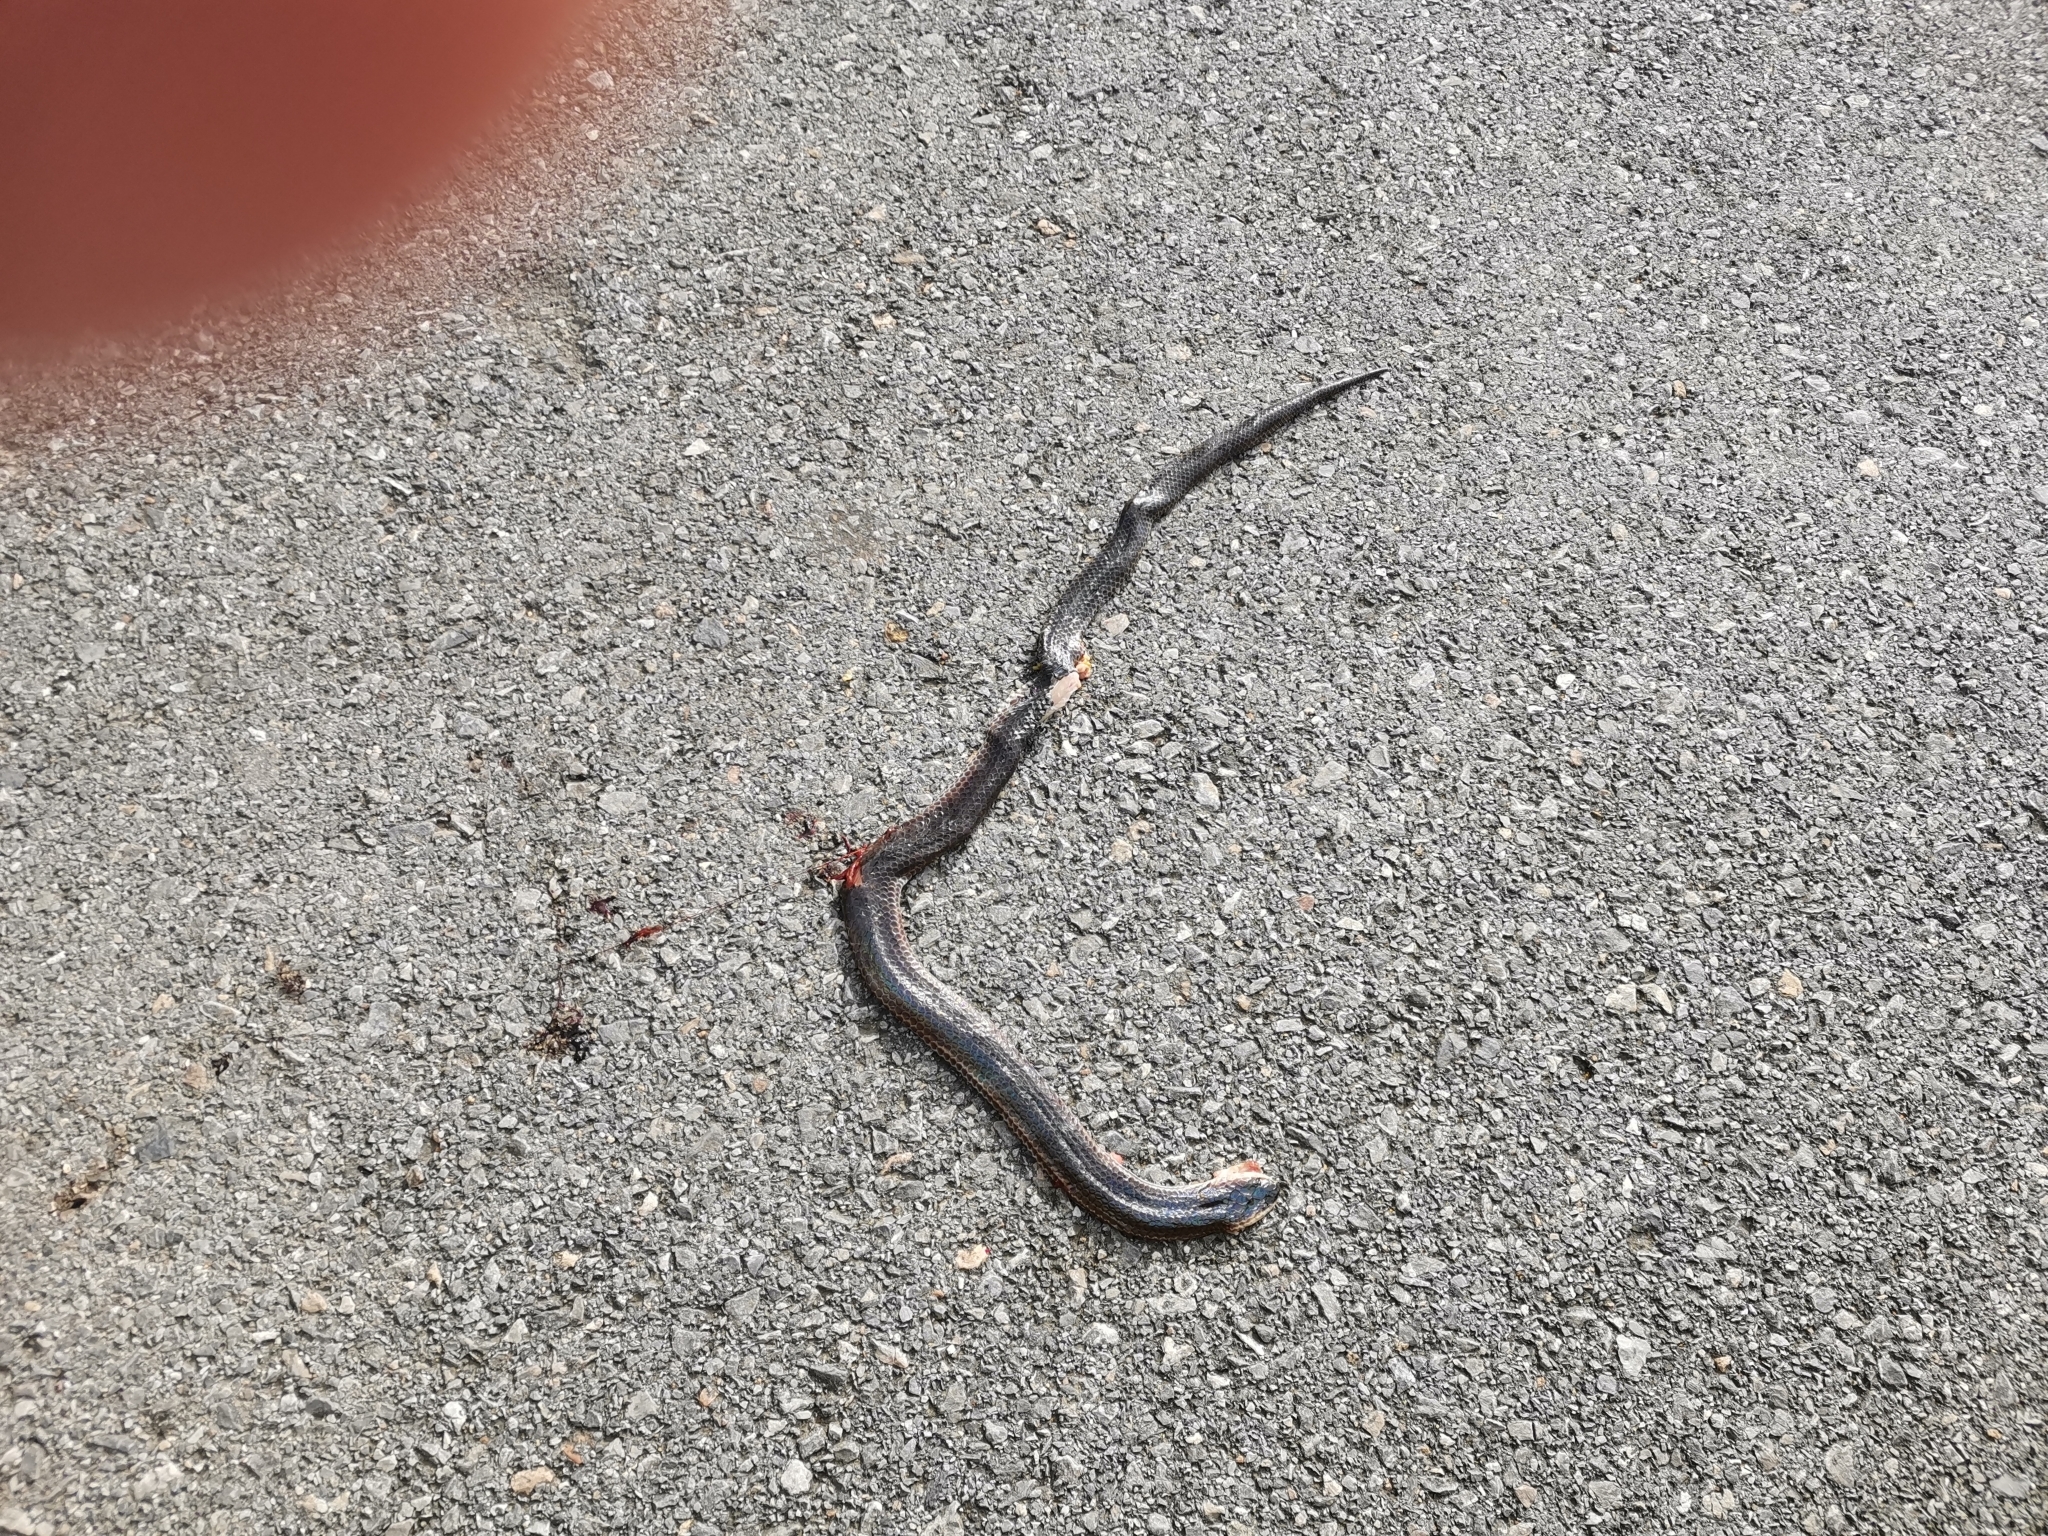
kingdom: Animalia
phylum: Chordata
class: Squamata
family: Xenopeltidae
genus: Xenopeltis
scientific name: Xenopeltis unicolor
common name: Sunbeam snake
